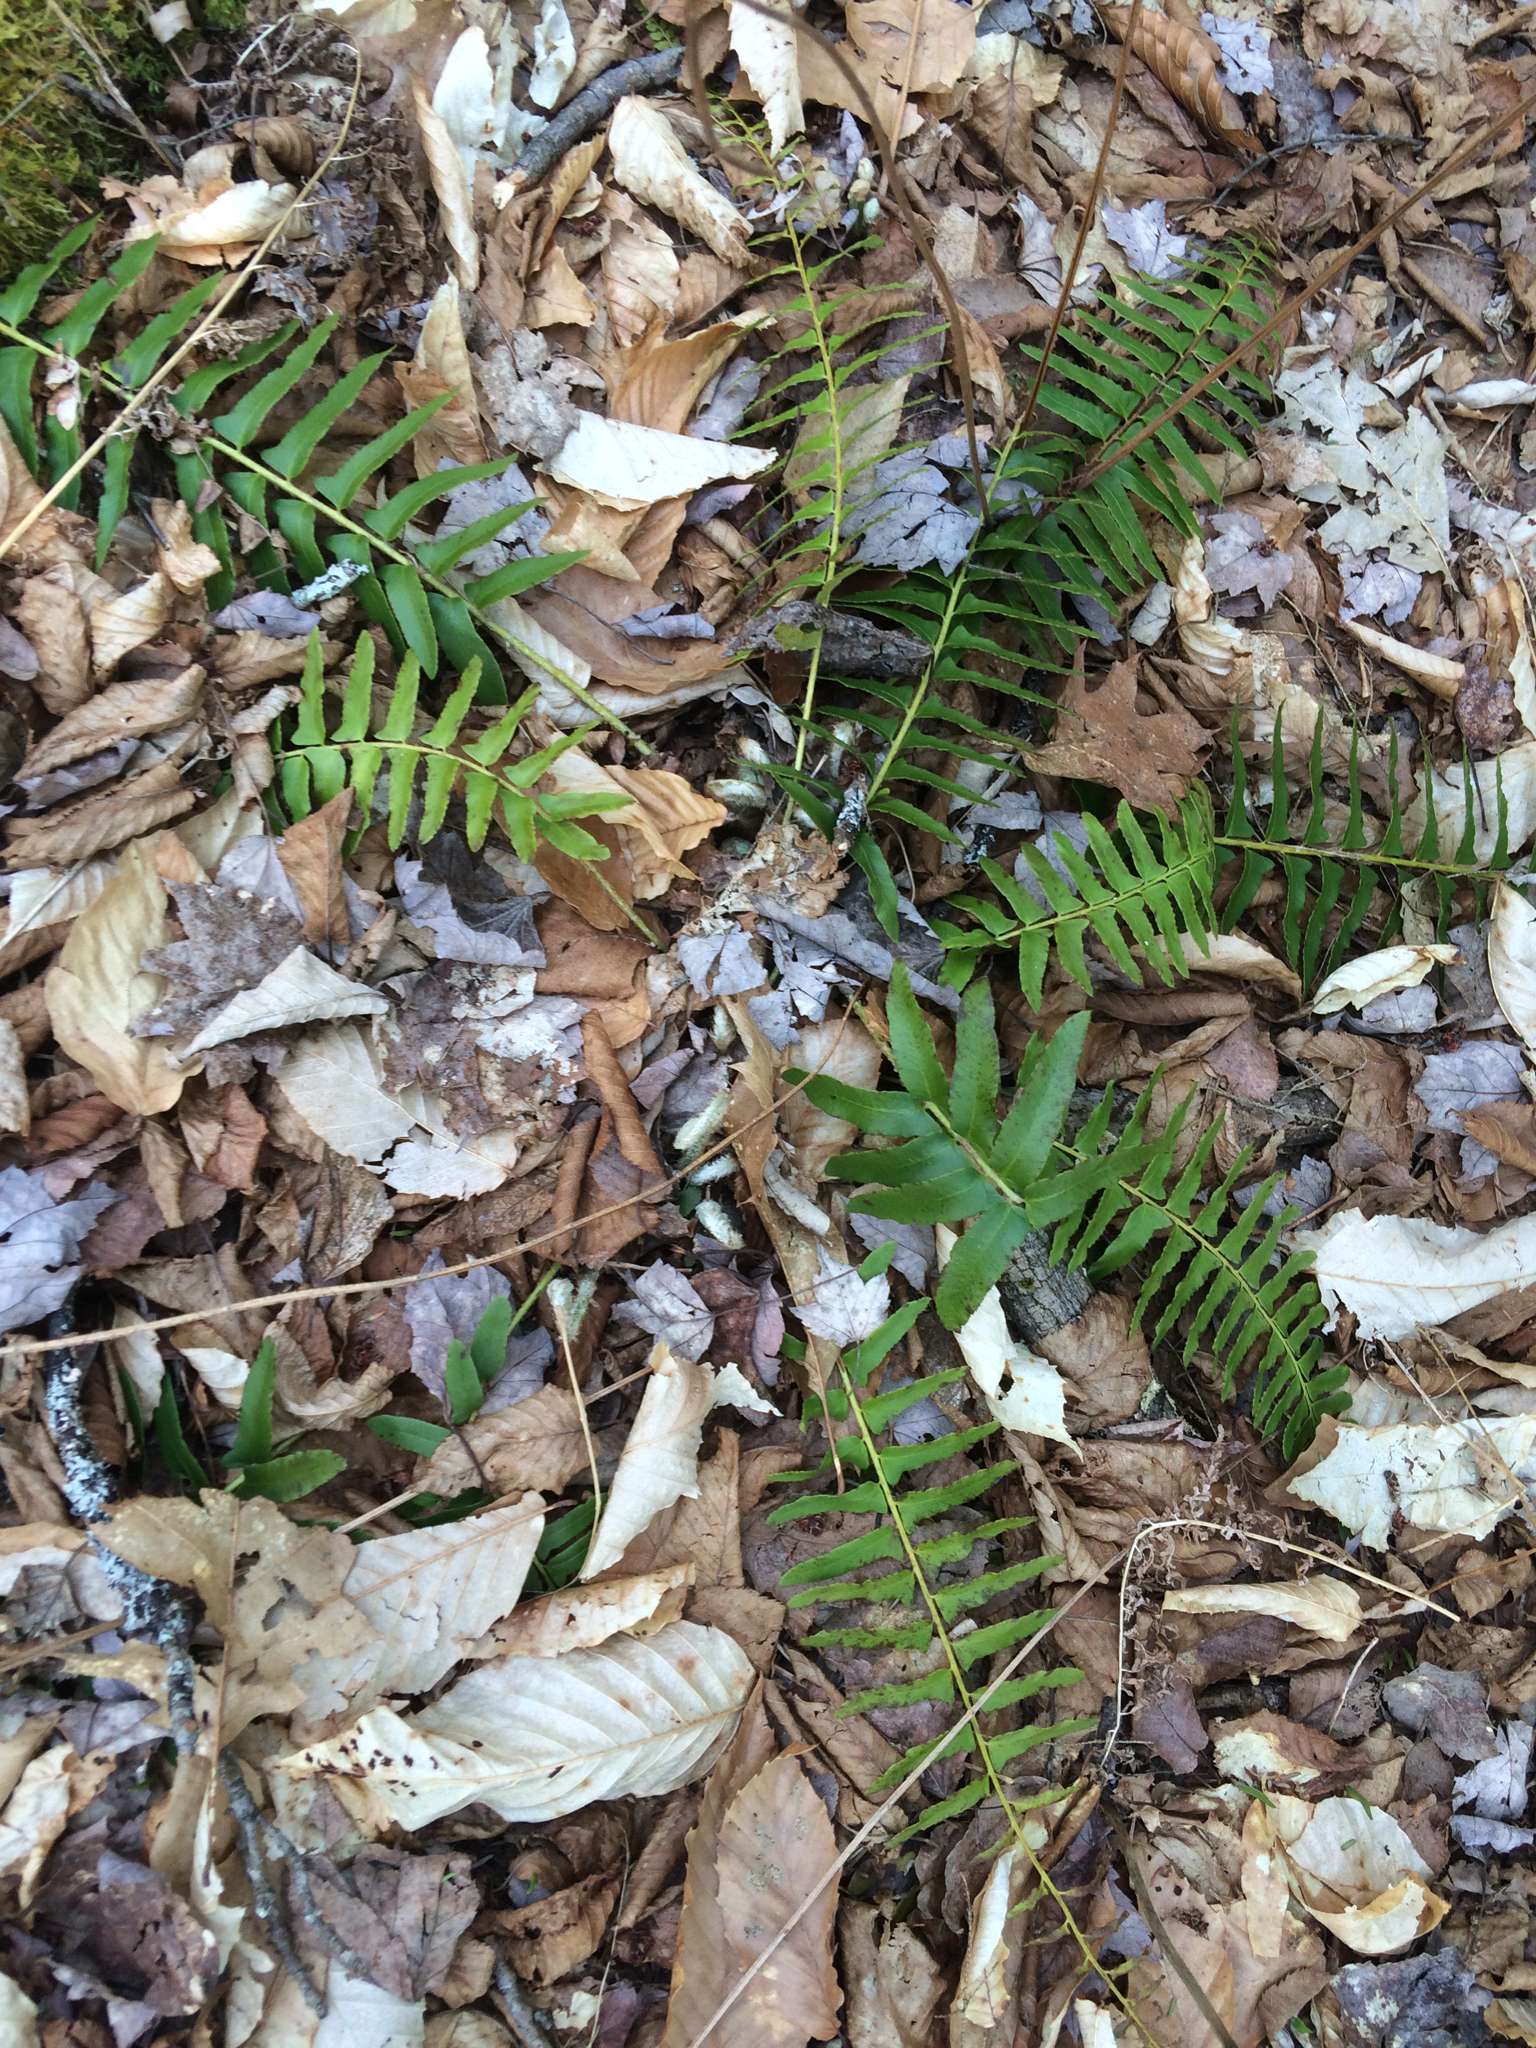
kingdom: Plantae
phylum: Tracheophyta
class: Polypodiopsida
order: Polypodiales
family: Dryopteridaceae
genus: Polystichum
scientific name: Polystichum acrostichoides
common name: Christmas fern
